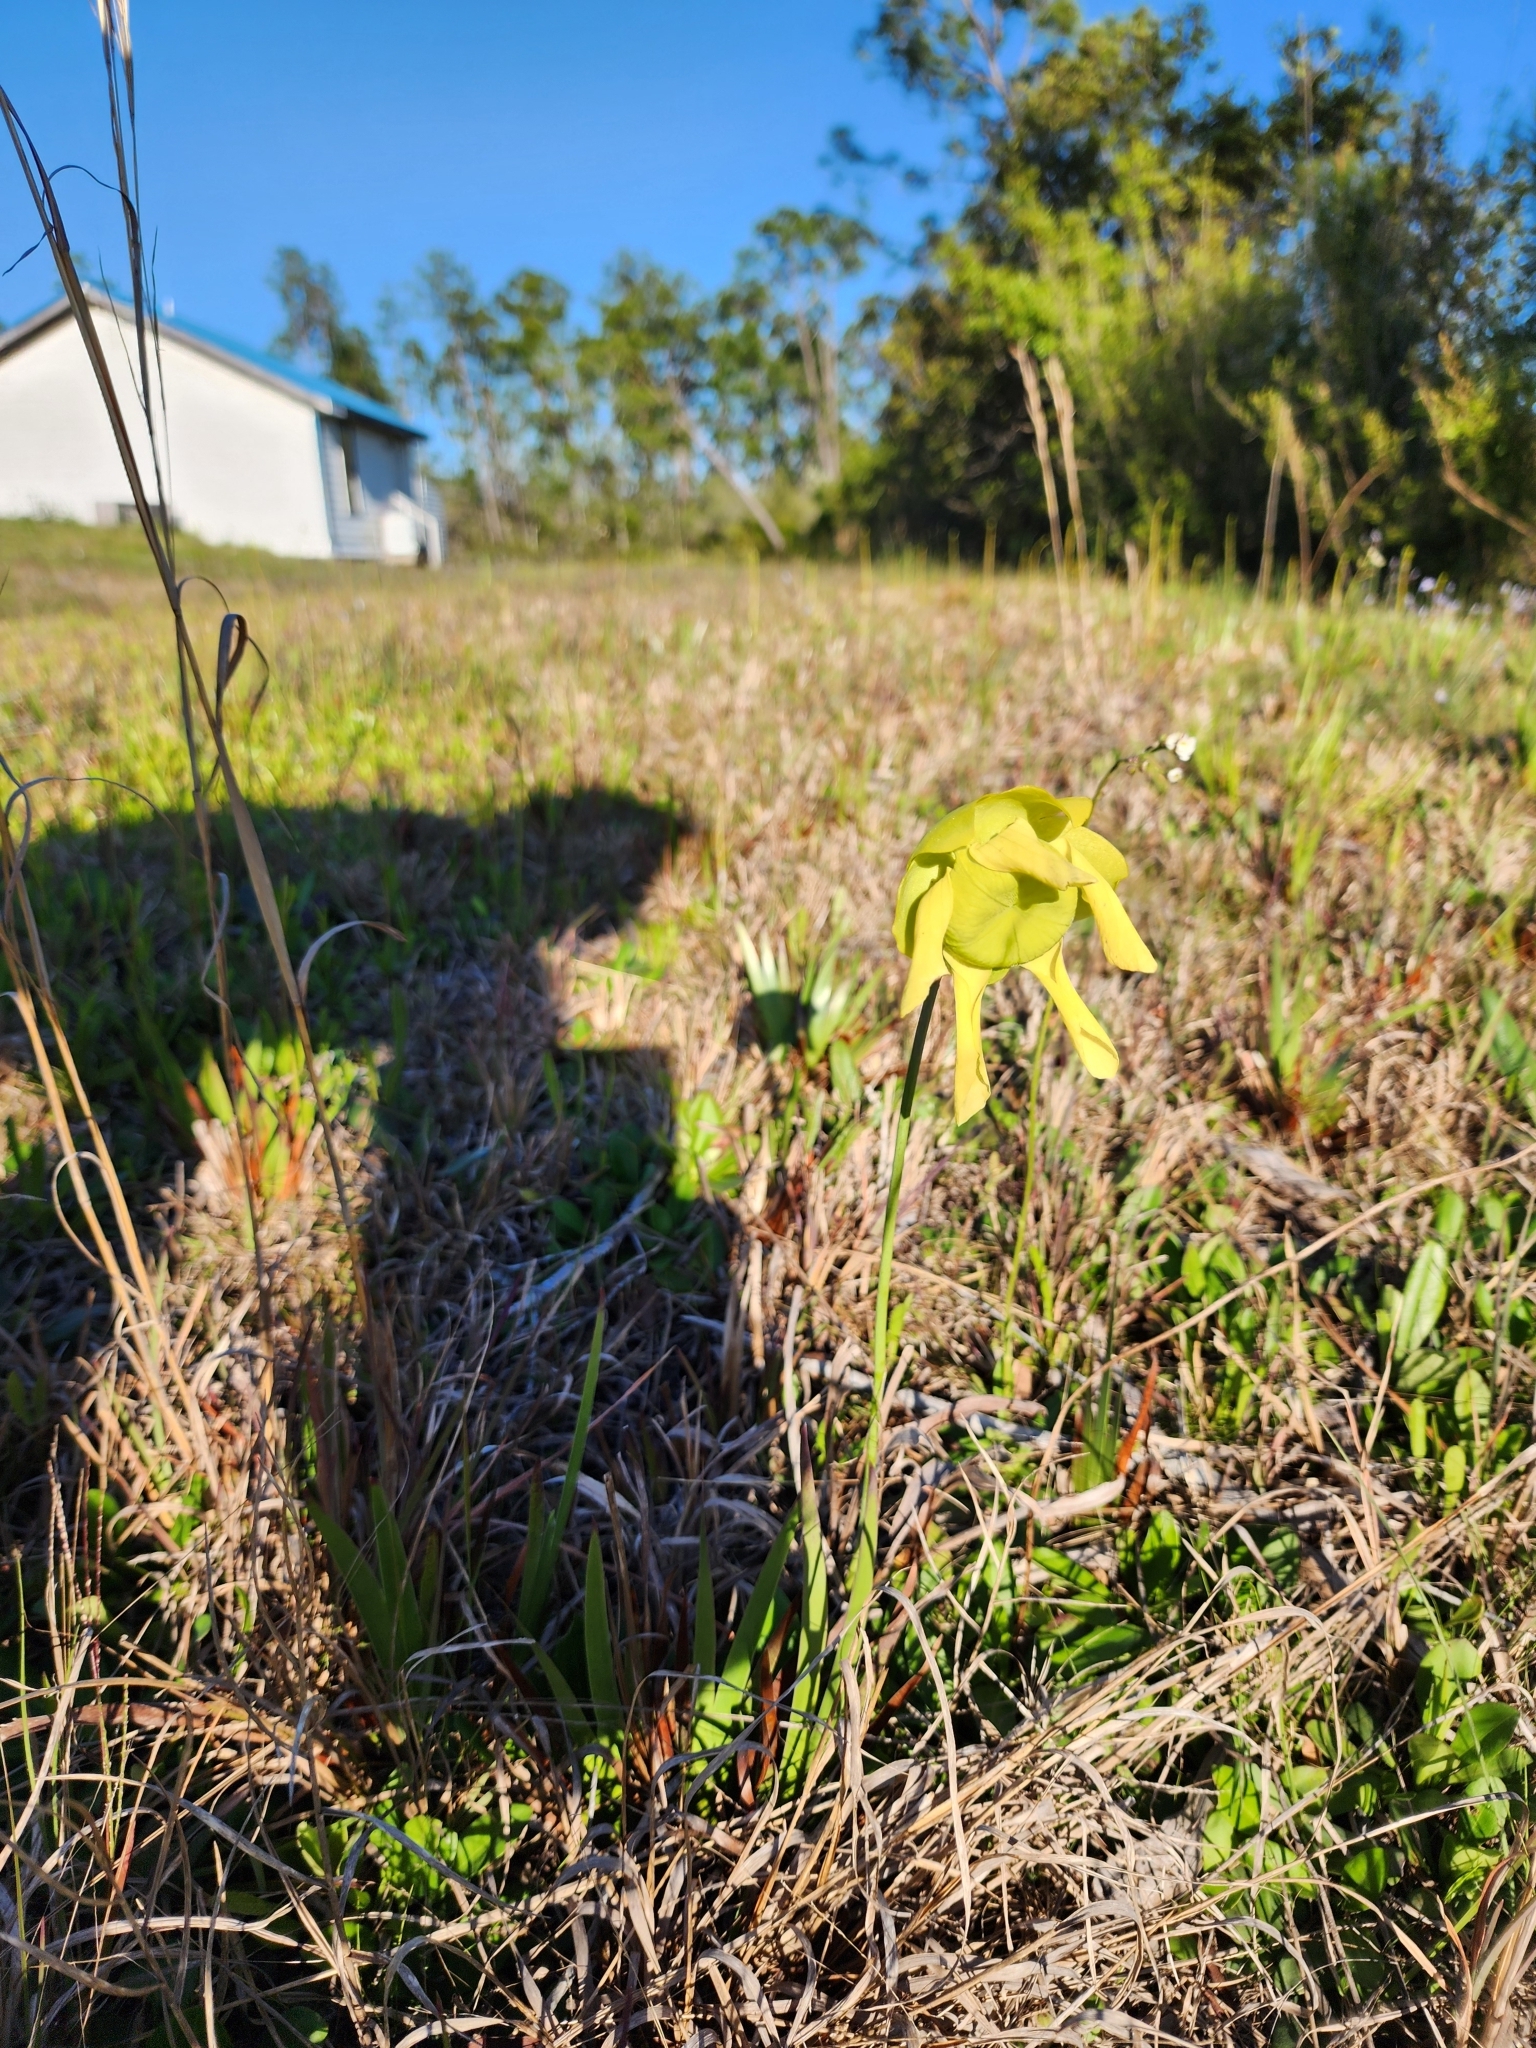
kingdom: Plantae
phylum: Tracheophyta
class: Magnoliopsida
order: Ericales
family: Sarraceniaceae
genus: Sarracenia
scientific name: Sarracenia flava
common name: Trumpets
